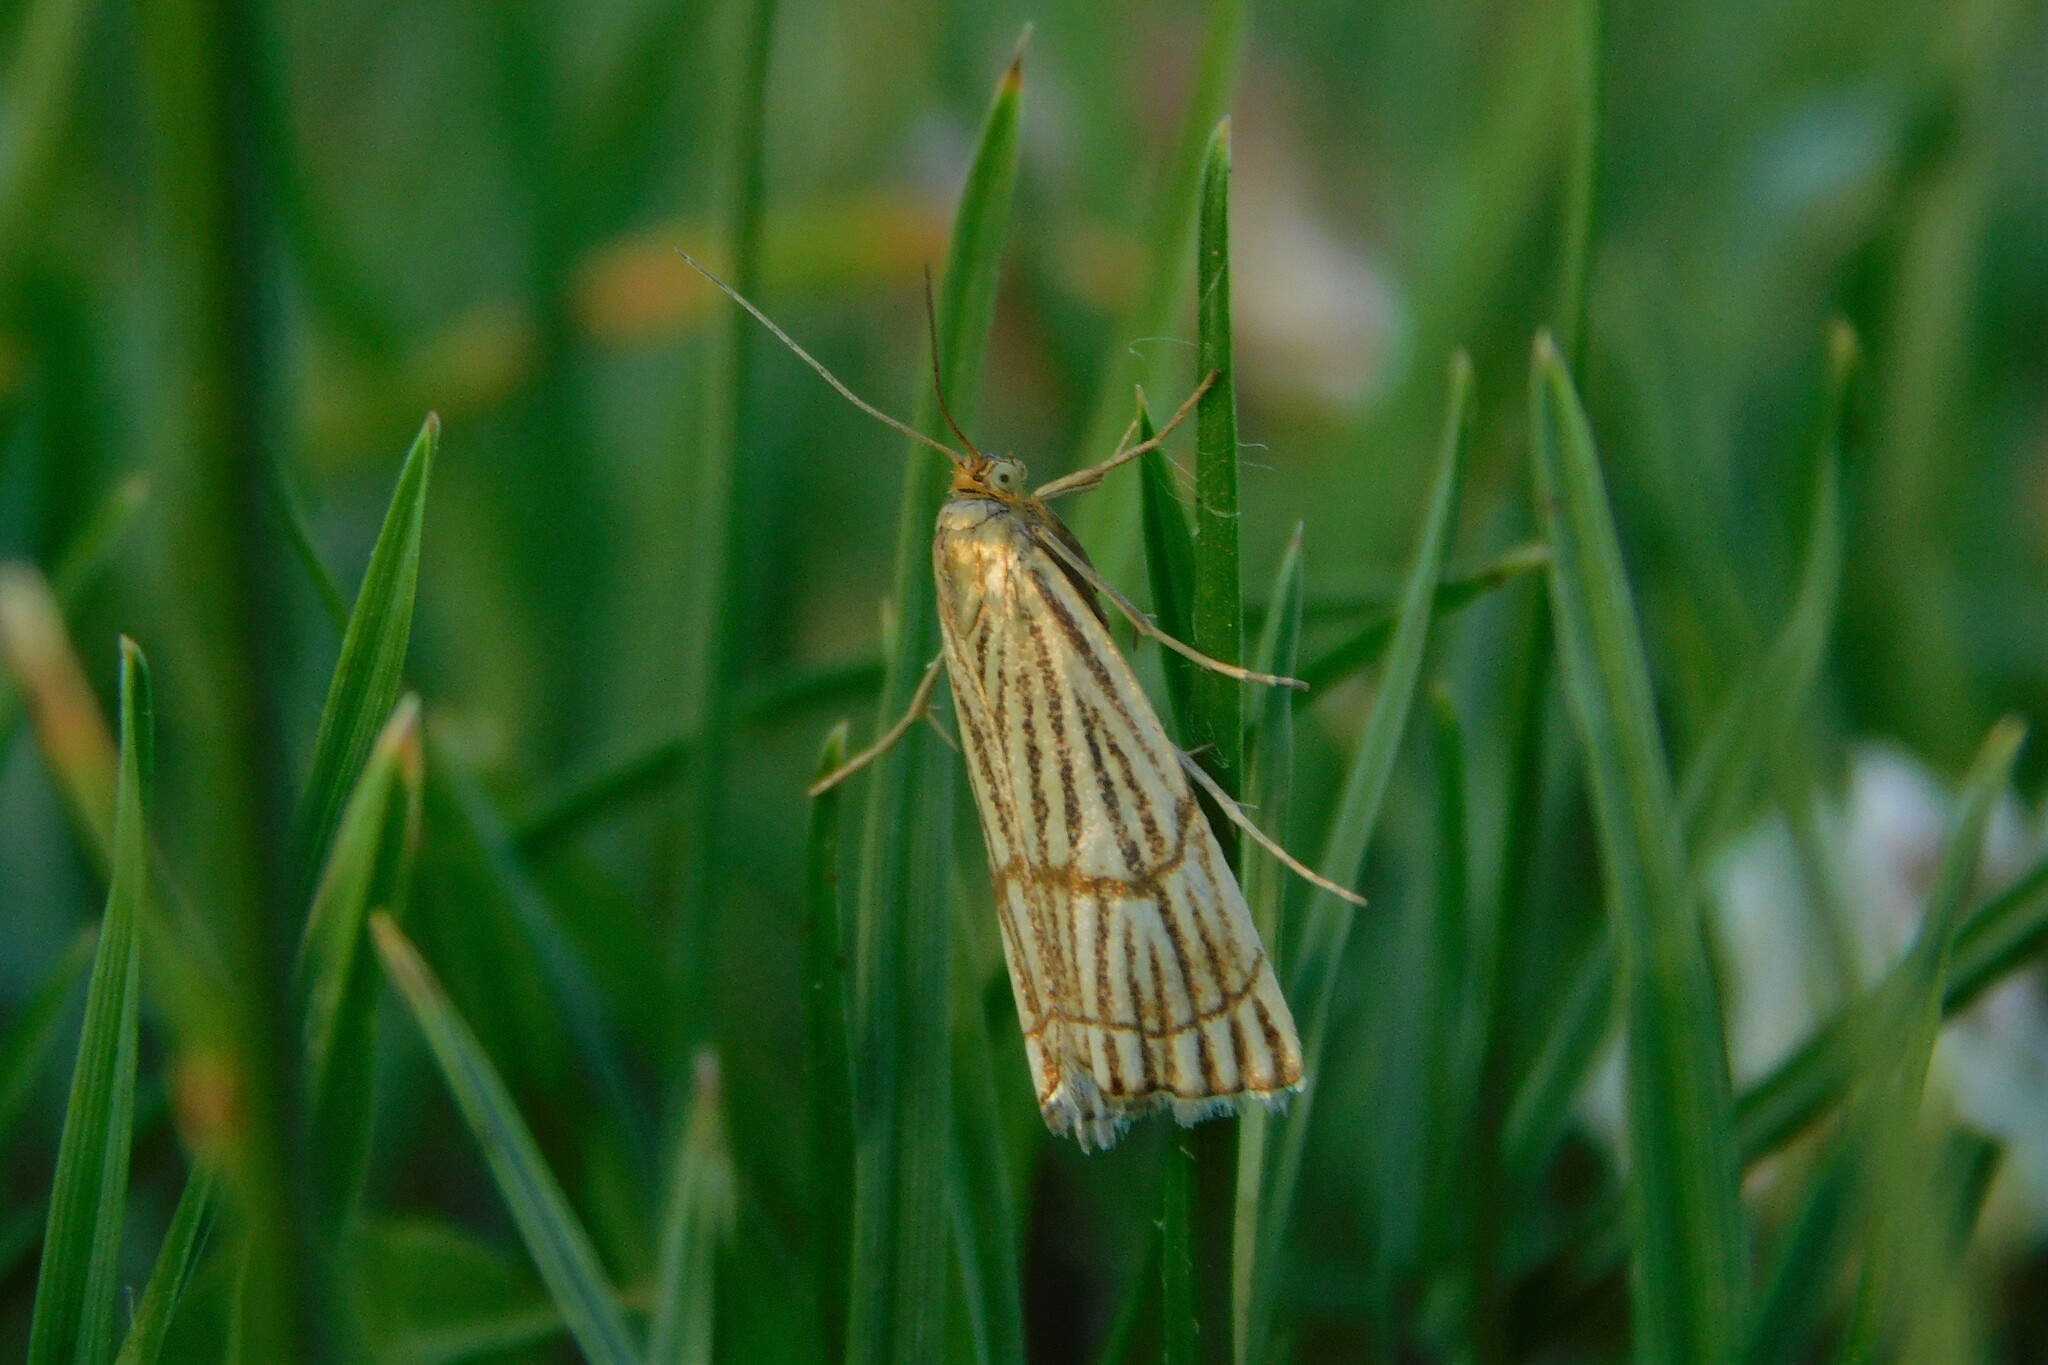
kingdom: Animalia
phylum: Arthropoda
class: Insecta
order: Lepidoptera
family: Crambidae
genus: Chrysocrambus
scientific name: Chrysocrambus linetella
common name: Orange-bar grass-veneer
